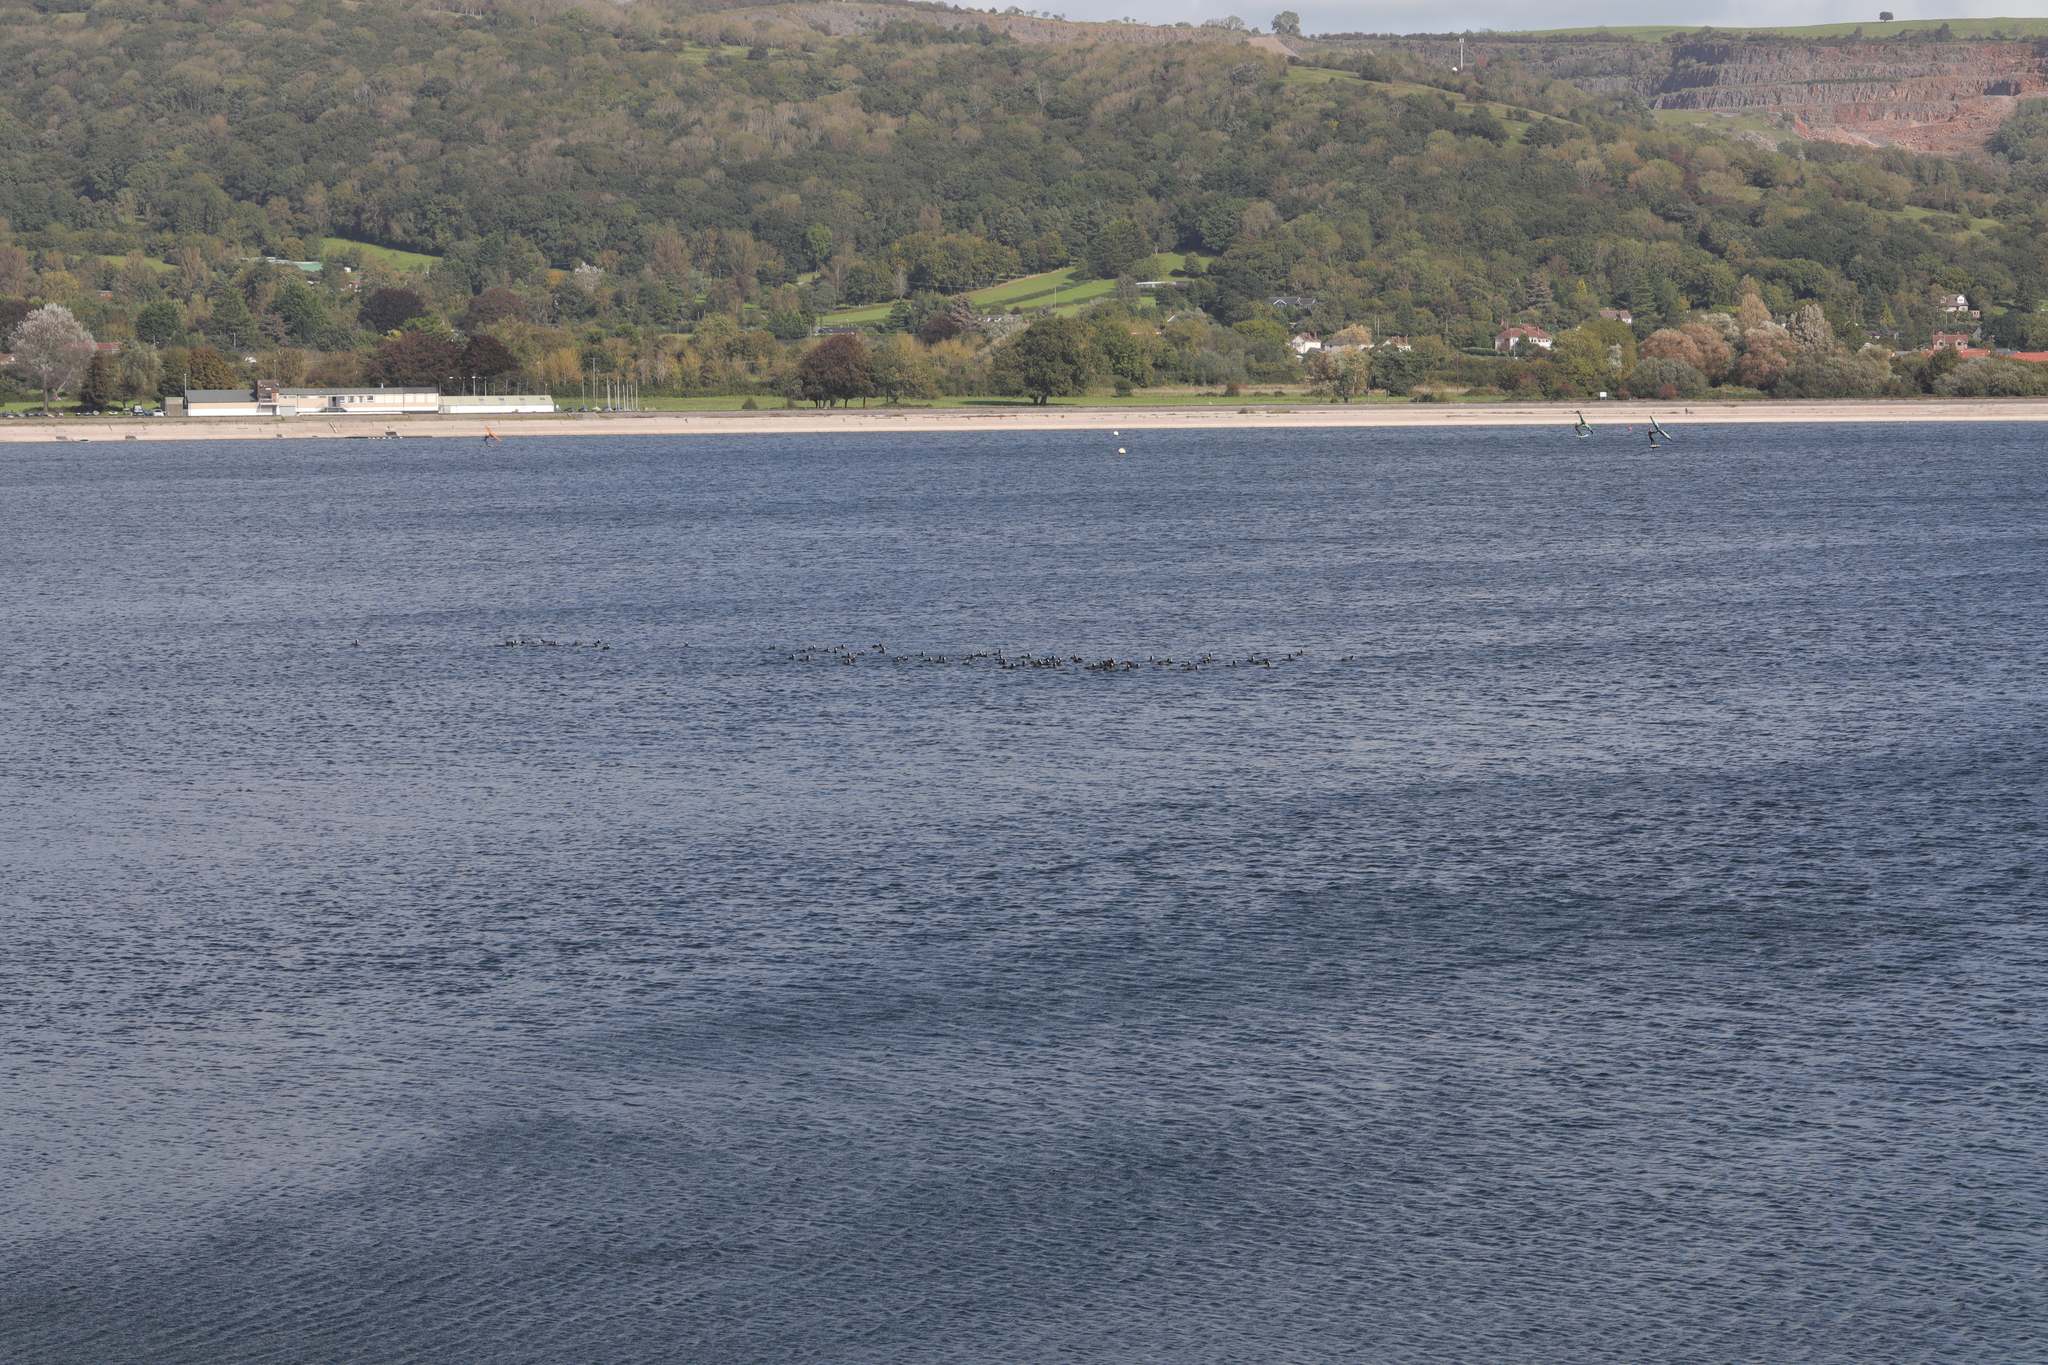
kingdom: Animalia
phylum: Chordata
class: Aves
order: Gruiformes
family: Rallidae
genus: Fulica
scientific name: Fulica atra
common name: Eurasian coot
